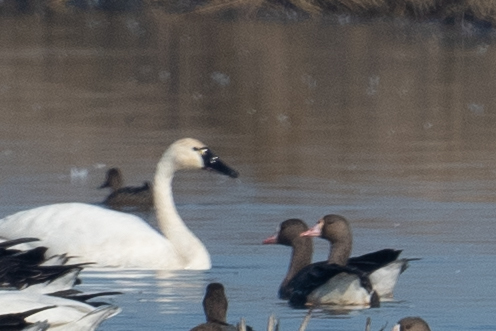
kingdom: Animalia
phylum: Chordata
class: Aves
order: Anseriformes
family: Anatidae
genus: Cygnus
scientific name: Cygnus columbianus
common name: Tundra swan
